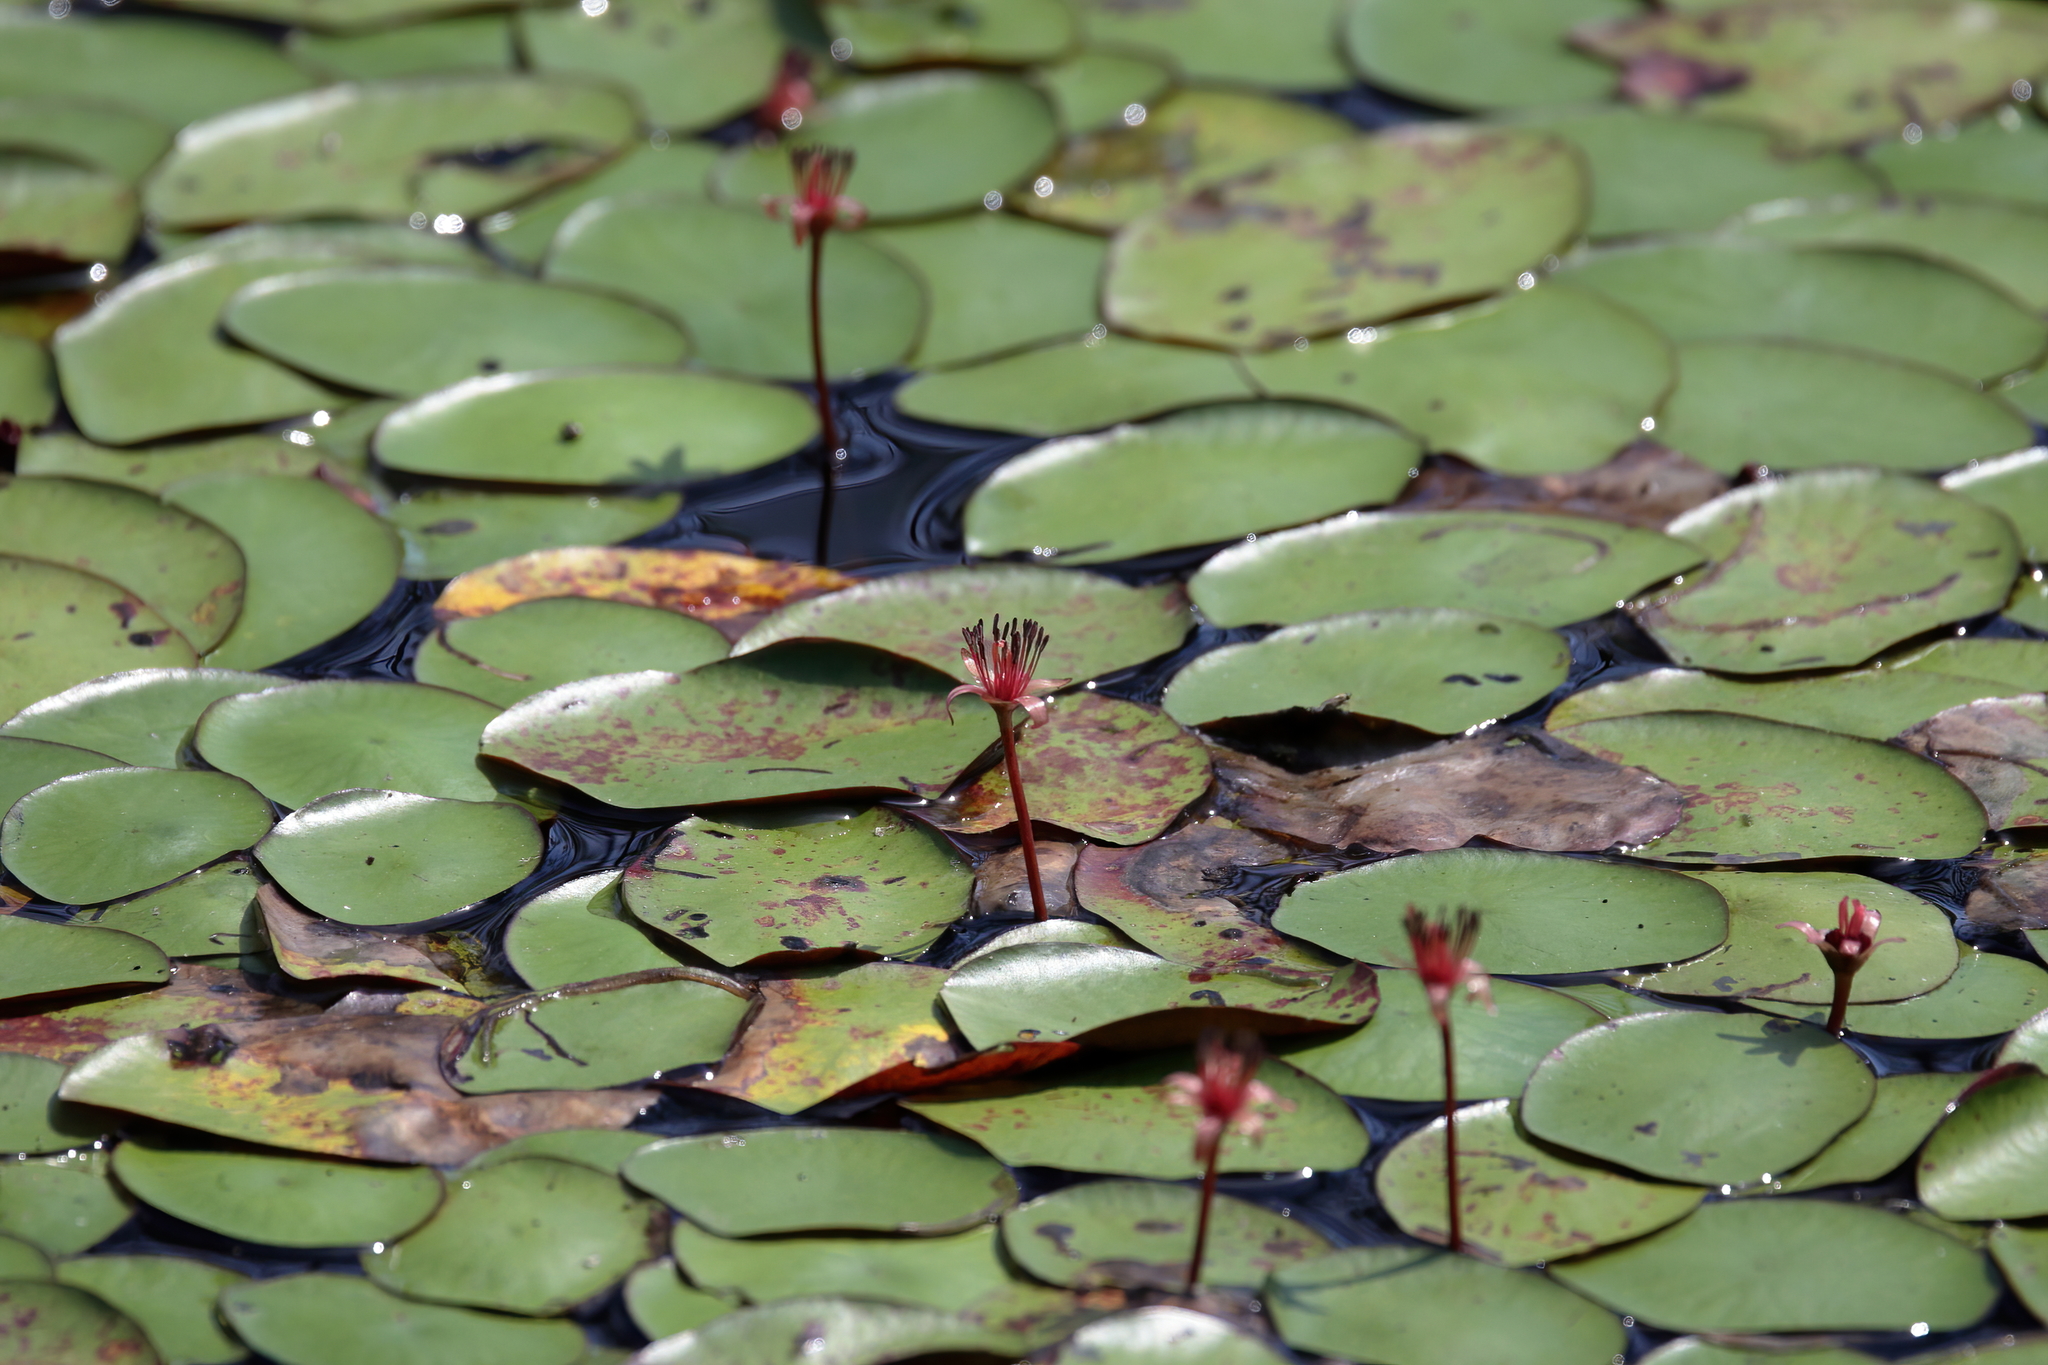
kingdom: Plantae
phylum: Tracheophyta
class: Magnoliopsida
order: Nymphaeales
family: Cabombaceae
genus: Brasenia
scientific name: Brasenia schreberi
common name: Water-shield
